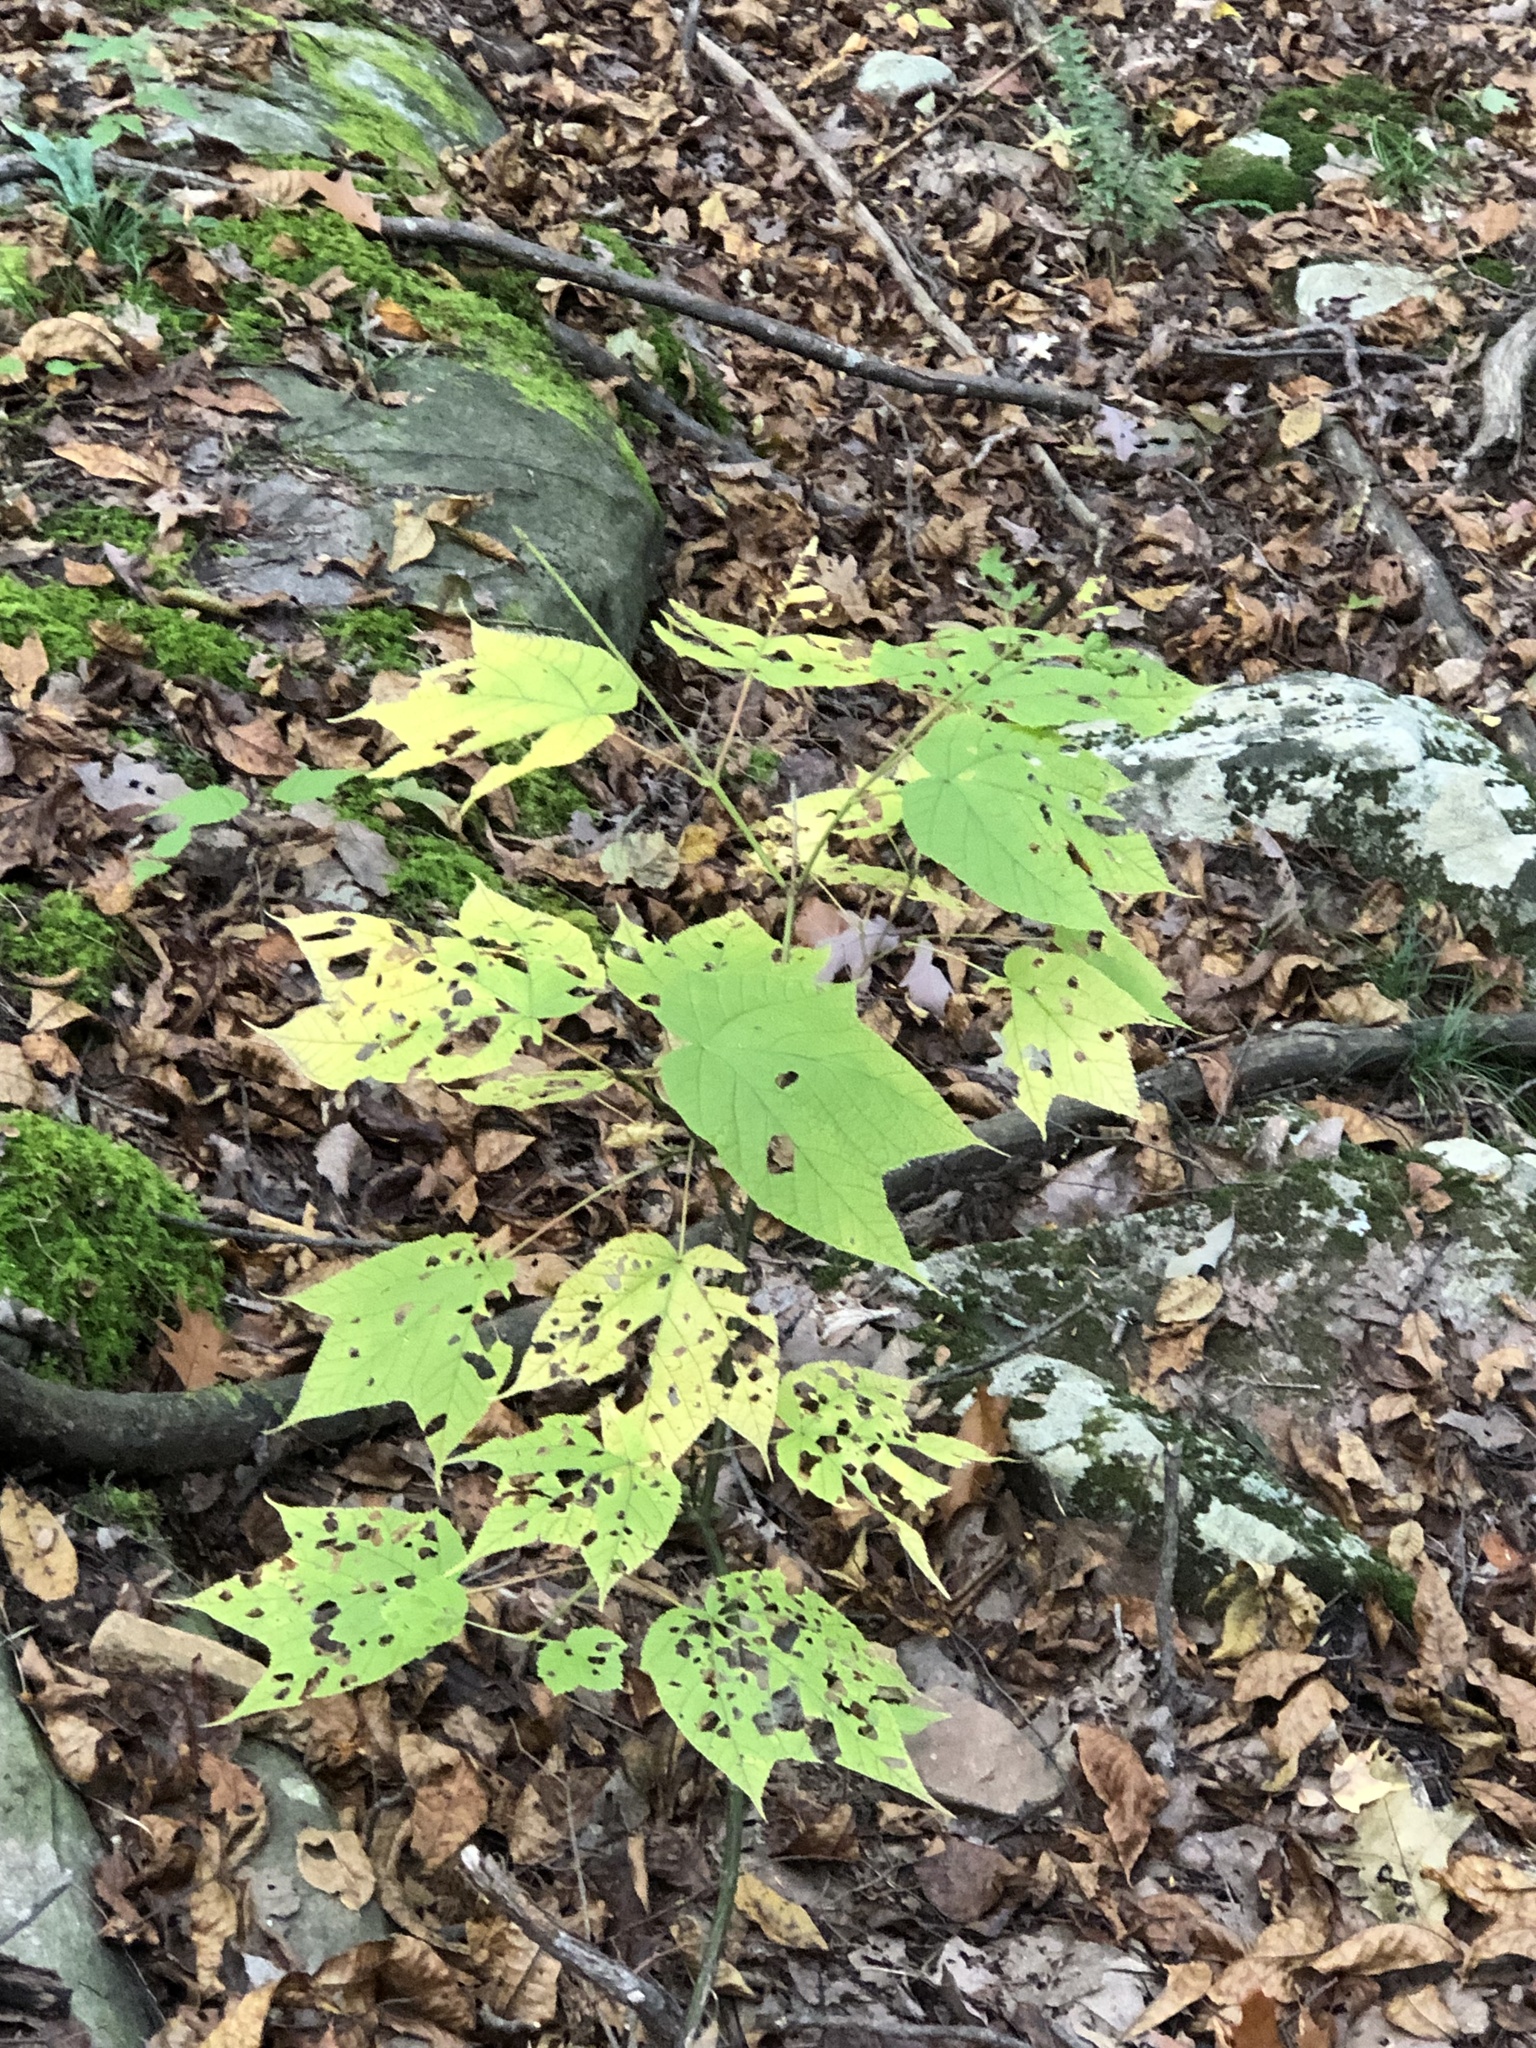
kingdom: Plantae
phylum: Tracheophyta
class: Magnoliopsida
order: Sapindales
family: Sapindaceae
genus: Acer
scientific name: Acer pensylvanicum
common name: Moosewood
